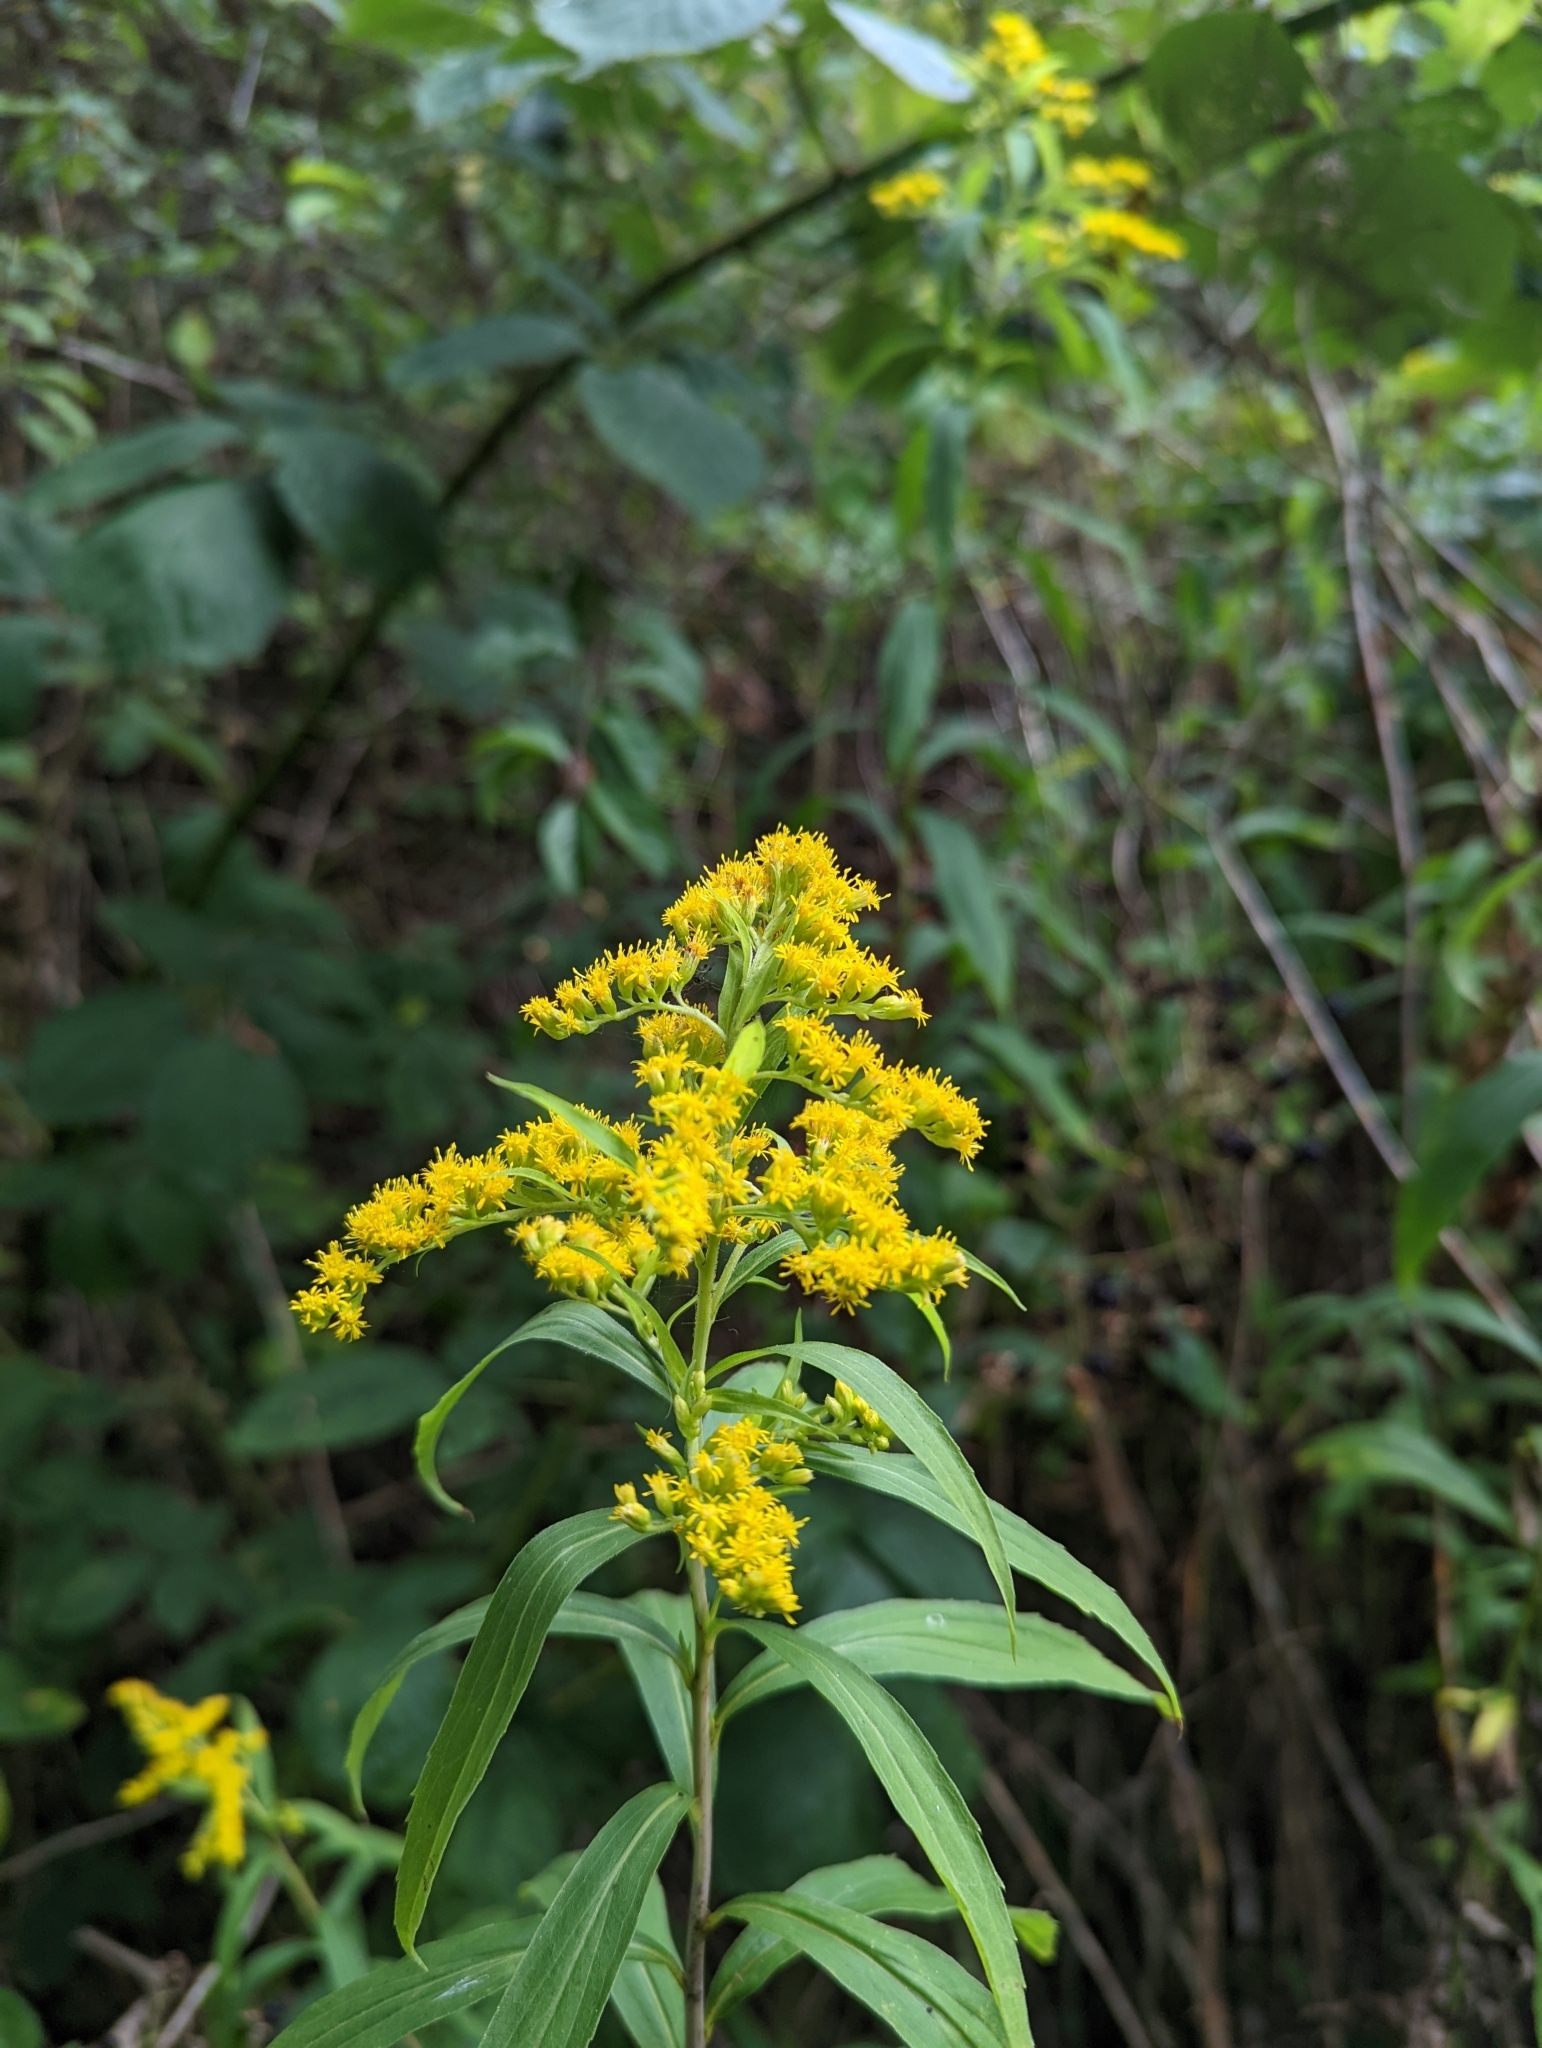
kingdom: Plantae
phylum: Tracheophyta
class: Magnoliopsida
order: Asterales
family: Asteraceae
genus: Solidago
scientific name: Solidago canadensis
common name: Canada goldenrod
